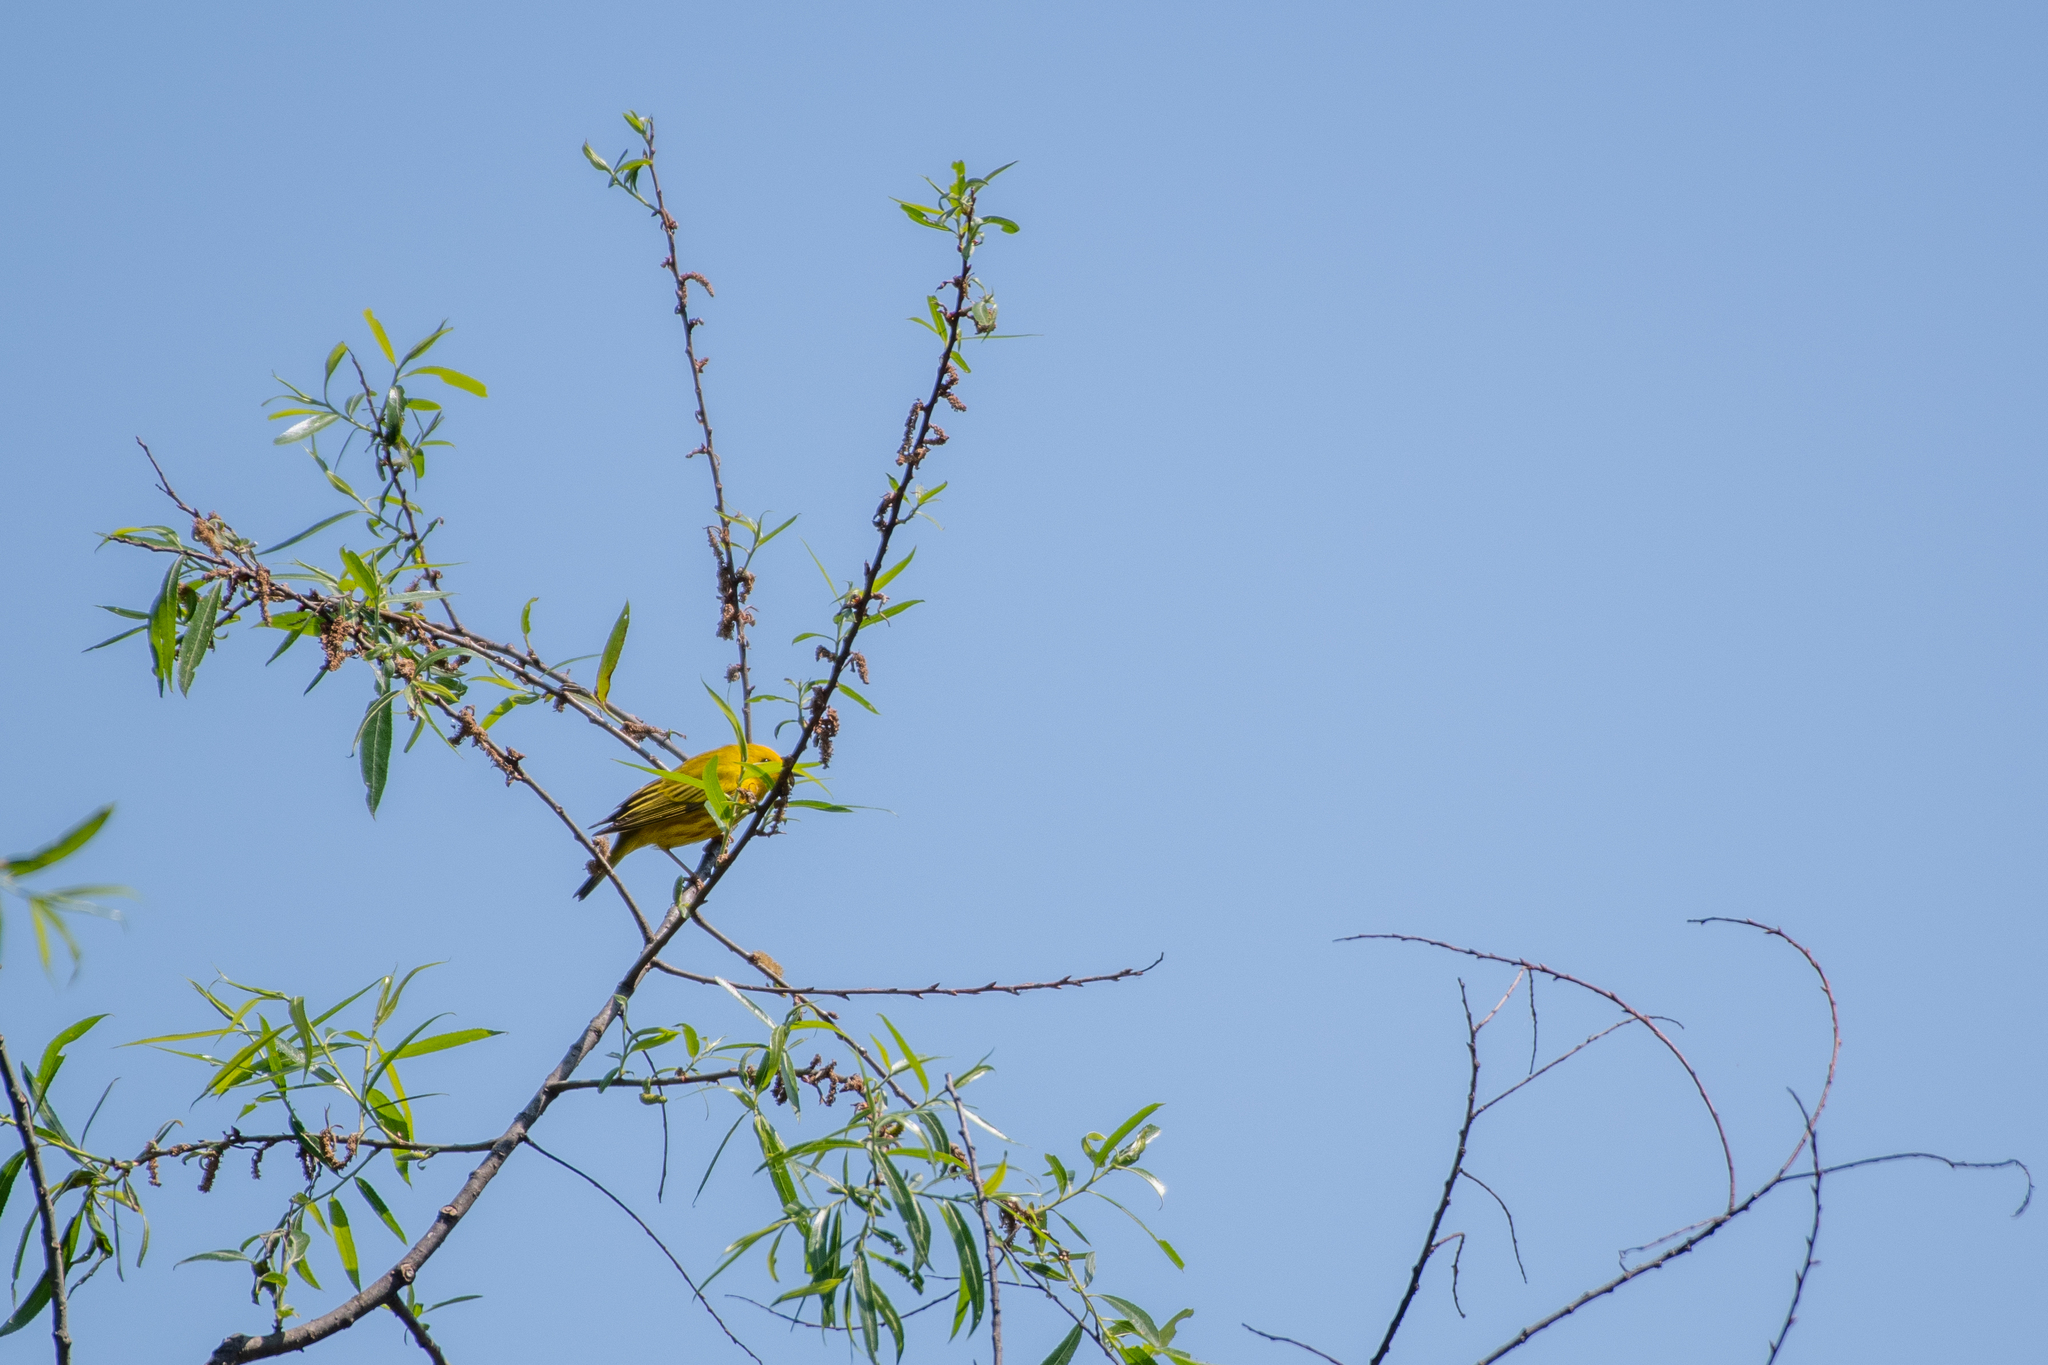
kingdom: Animalia
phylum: Chordata
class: Aves
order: Passeriformes
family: Parulidae
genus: Setophaga
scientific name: Setophaga petechia
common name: Yellow warbler
